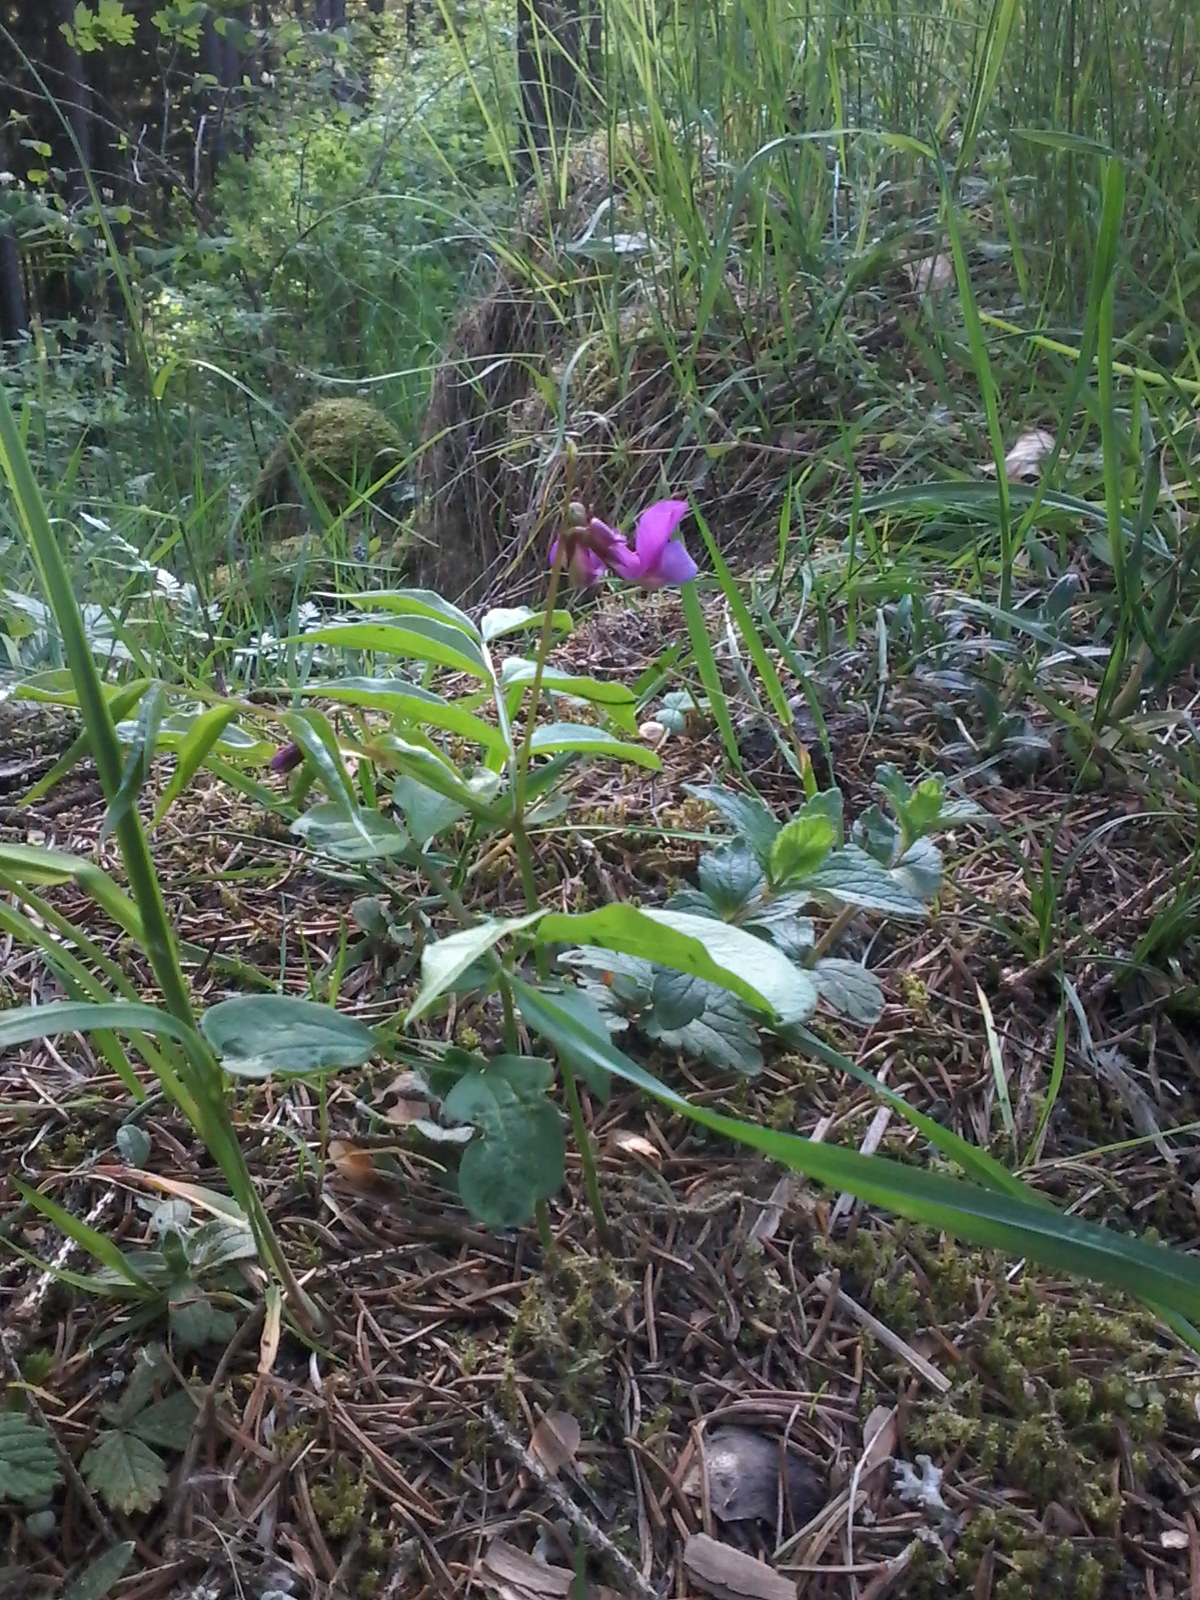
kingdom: Plantae
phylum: Tracheophyta
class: Magnoliopsida
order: Fabales
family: Fabaceae
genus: Lathyrus
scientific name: Lathyrus vernus
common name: Spring pea
